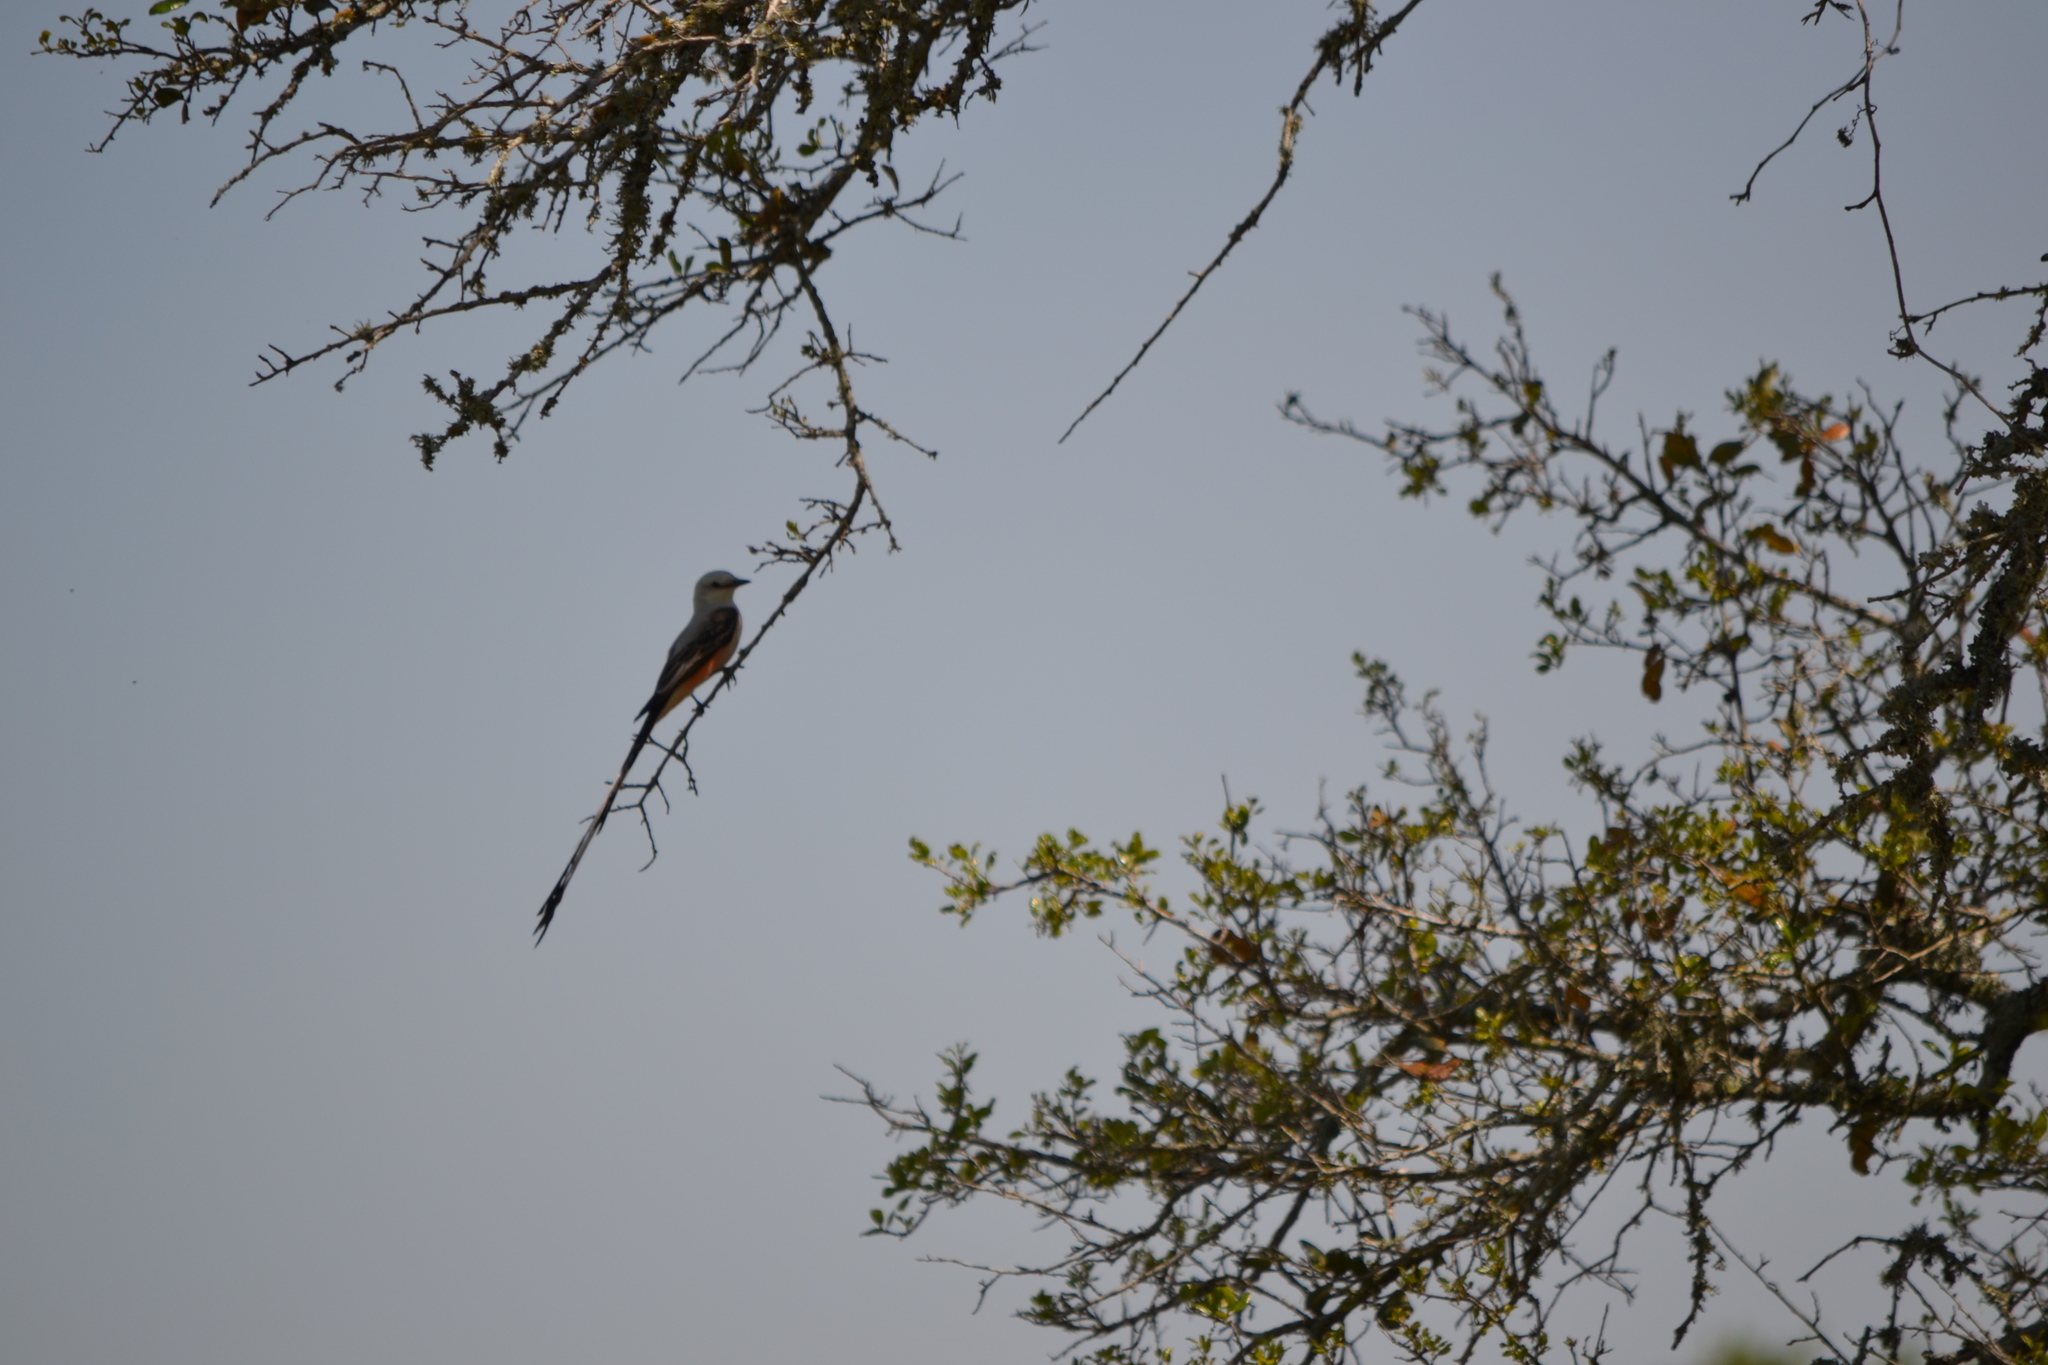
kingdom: Animalia
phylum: Chordata
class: Aves
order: Passeriformes
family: Tyrannidae
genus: Tyrannus
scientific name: Tyrannus forficatus
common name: Scissor-tailed flycatcher
